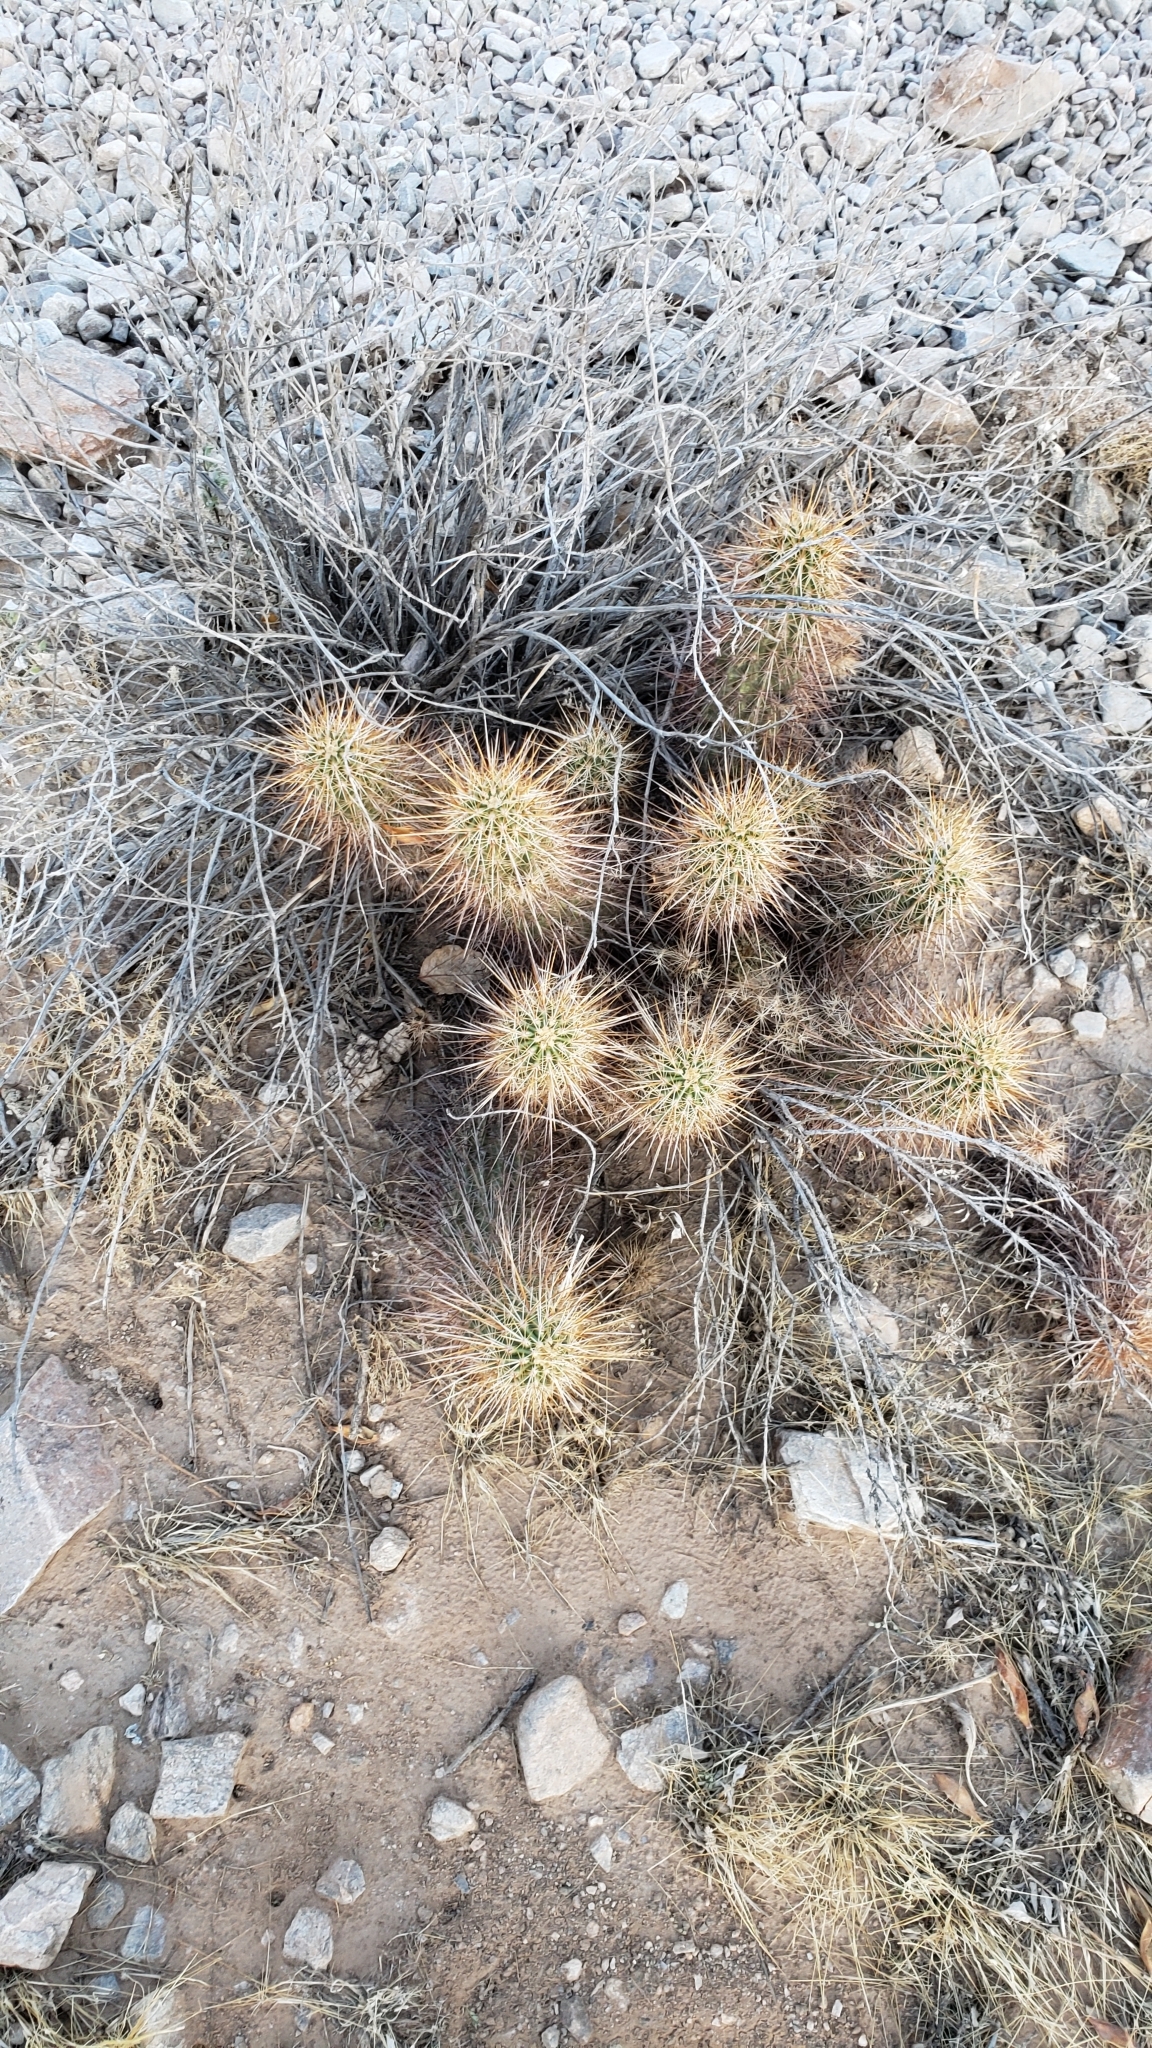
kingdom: Plantae
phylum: Tracheophyta
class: Magnoliopsida
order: Caryophyllales
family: Cactaceae
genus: Echinocereus
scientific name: Echinocereus engelmannii
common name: Engelmann's hedgehog cactus
